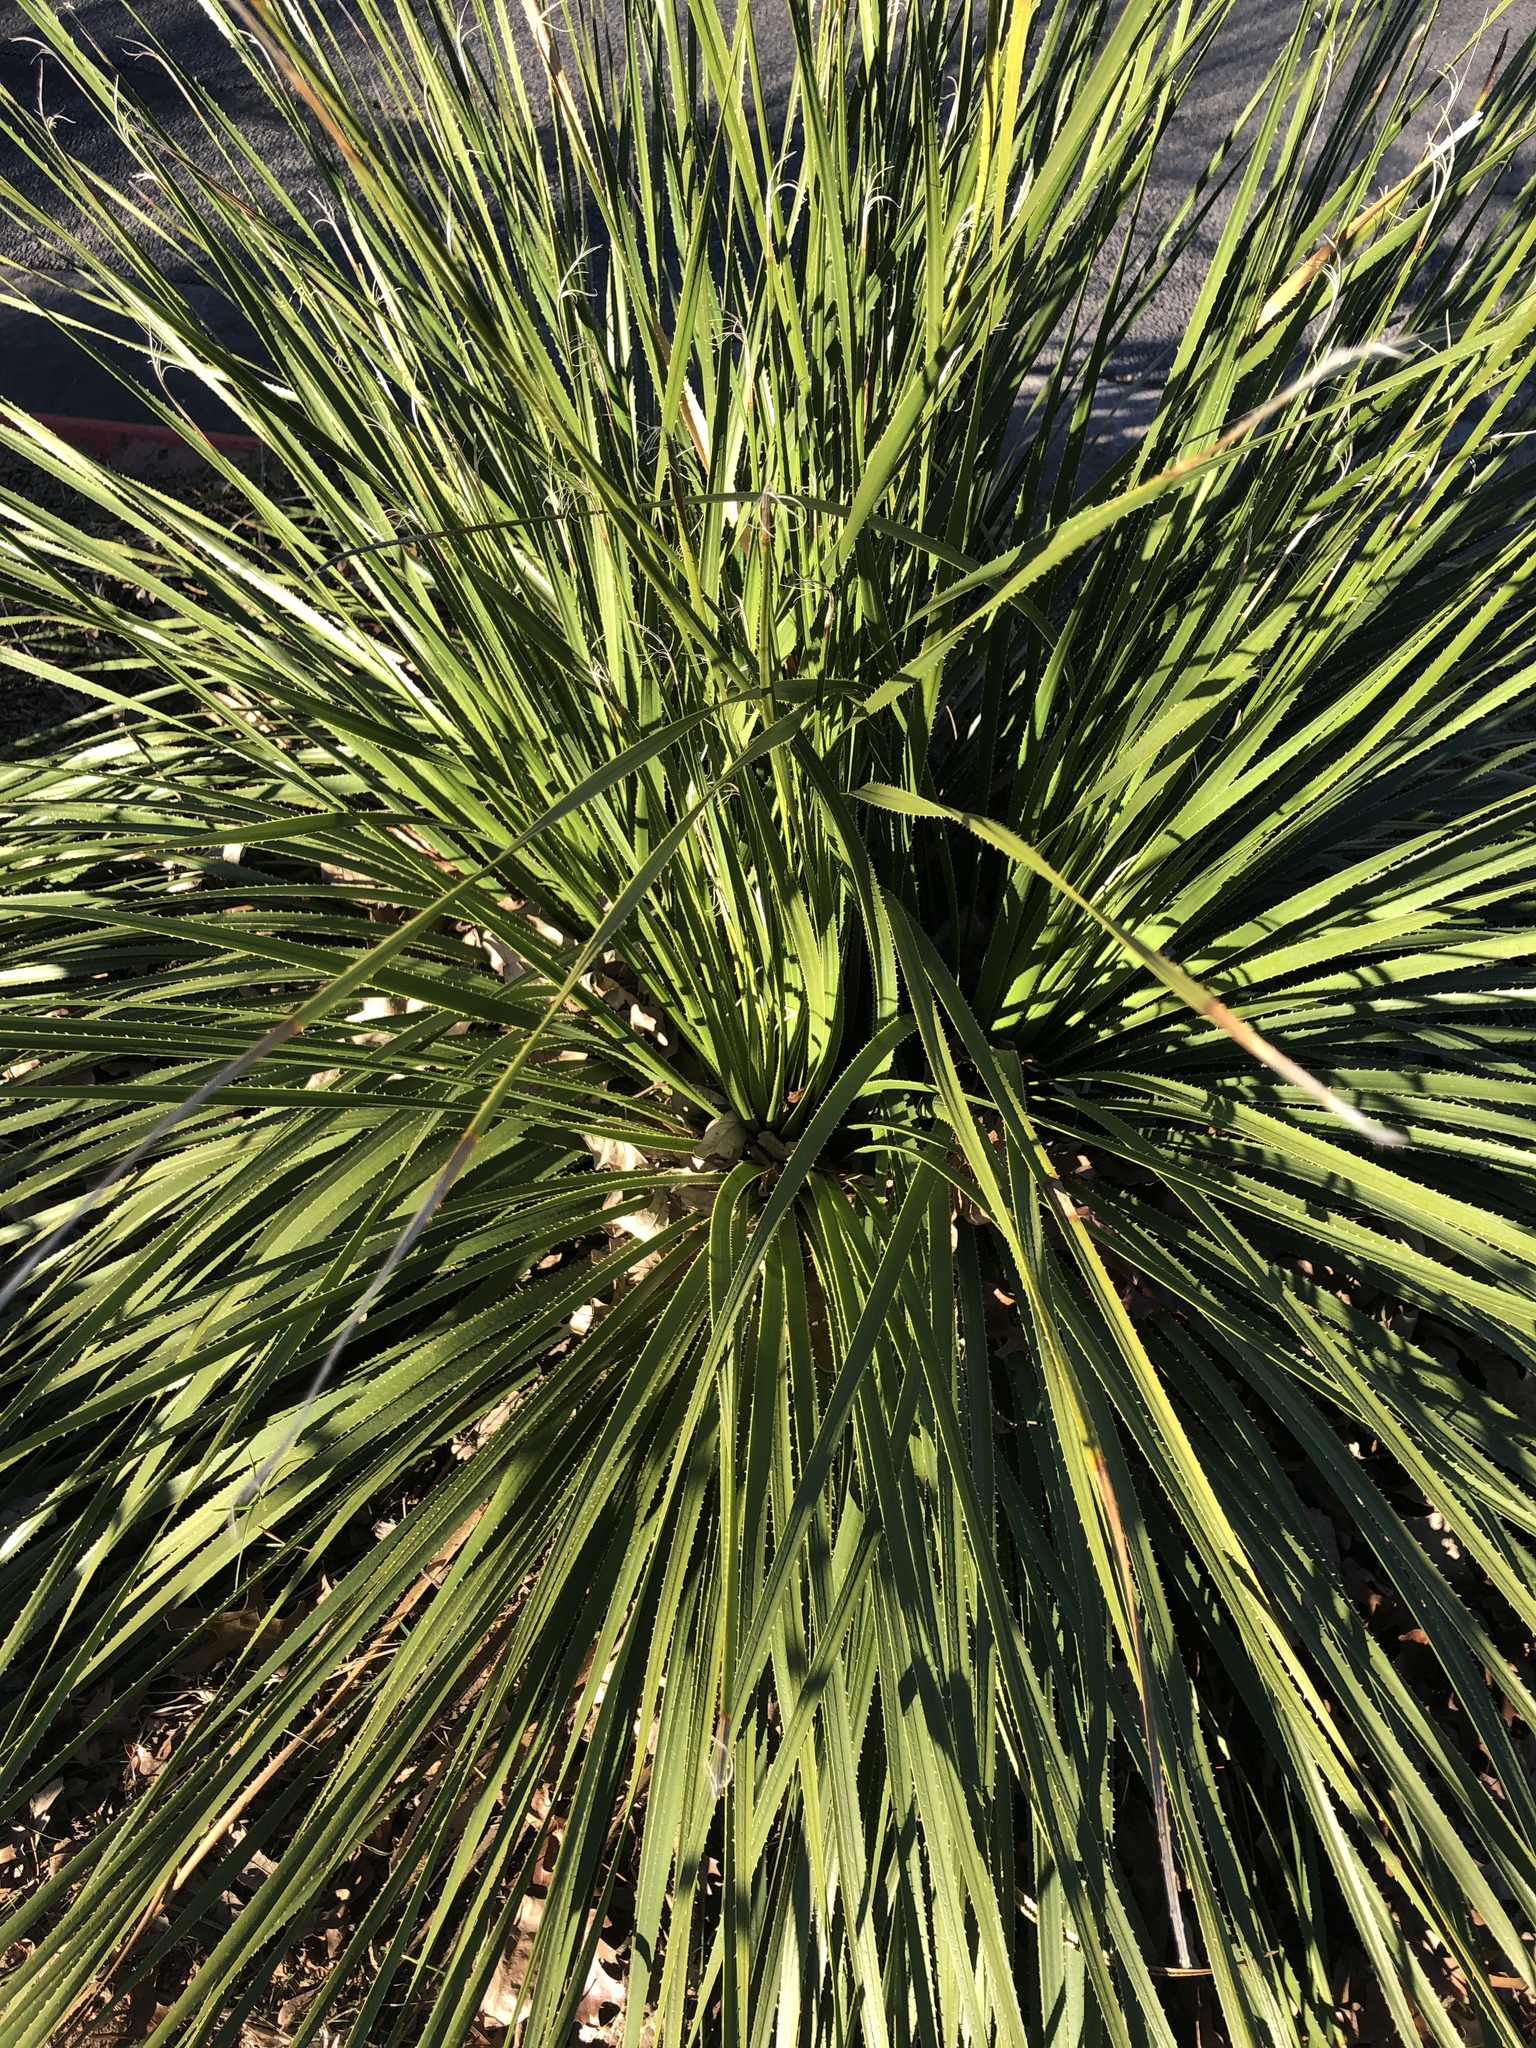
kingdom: Plantae
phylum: Tracheophyta
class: Liliopsida
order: Asparagales
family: Asparagaceae
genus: Dasylirion
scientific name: Dasylirion texanum
